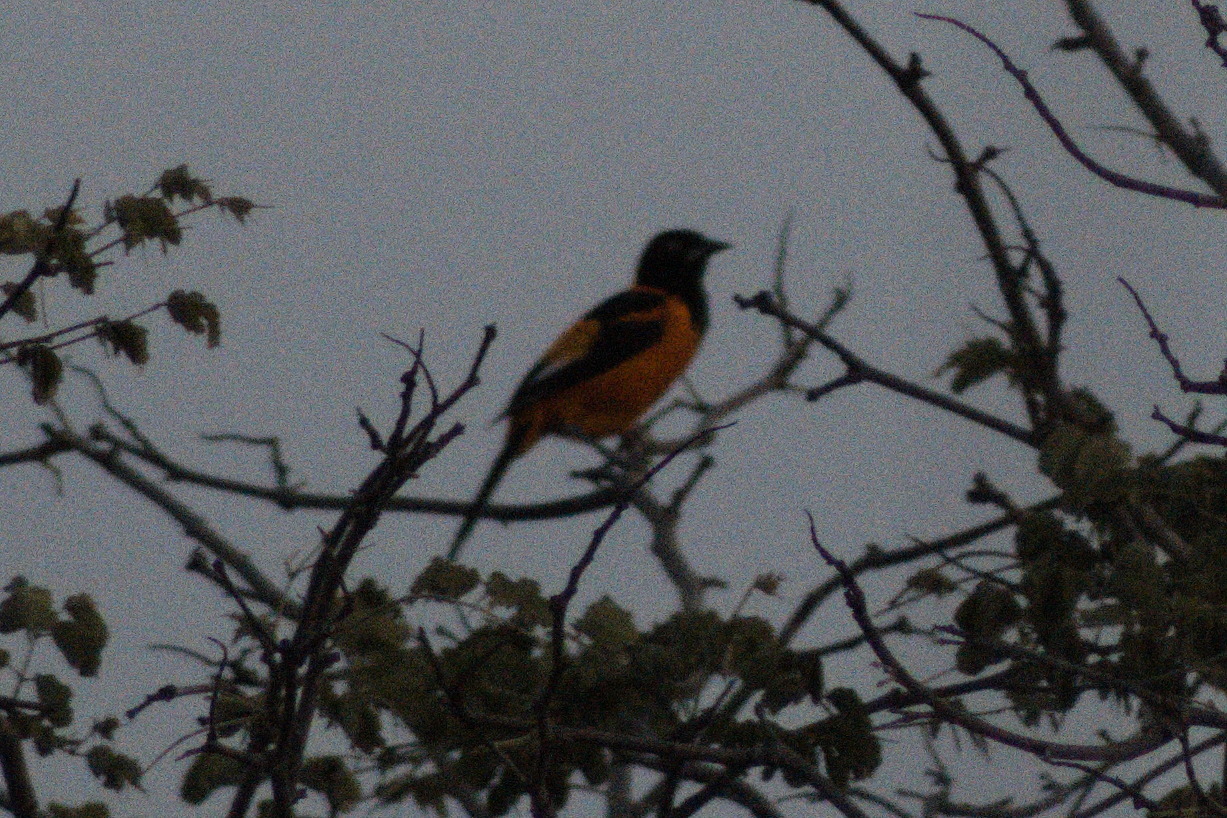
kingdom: Animalia
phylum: Chordata
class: Aves
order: Passeriformes
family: Icteridae
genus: Icterus
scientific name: Icterus icterus
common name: Venezuelan troupial
